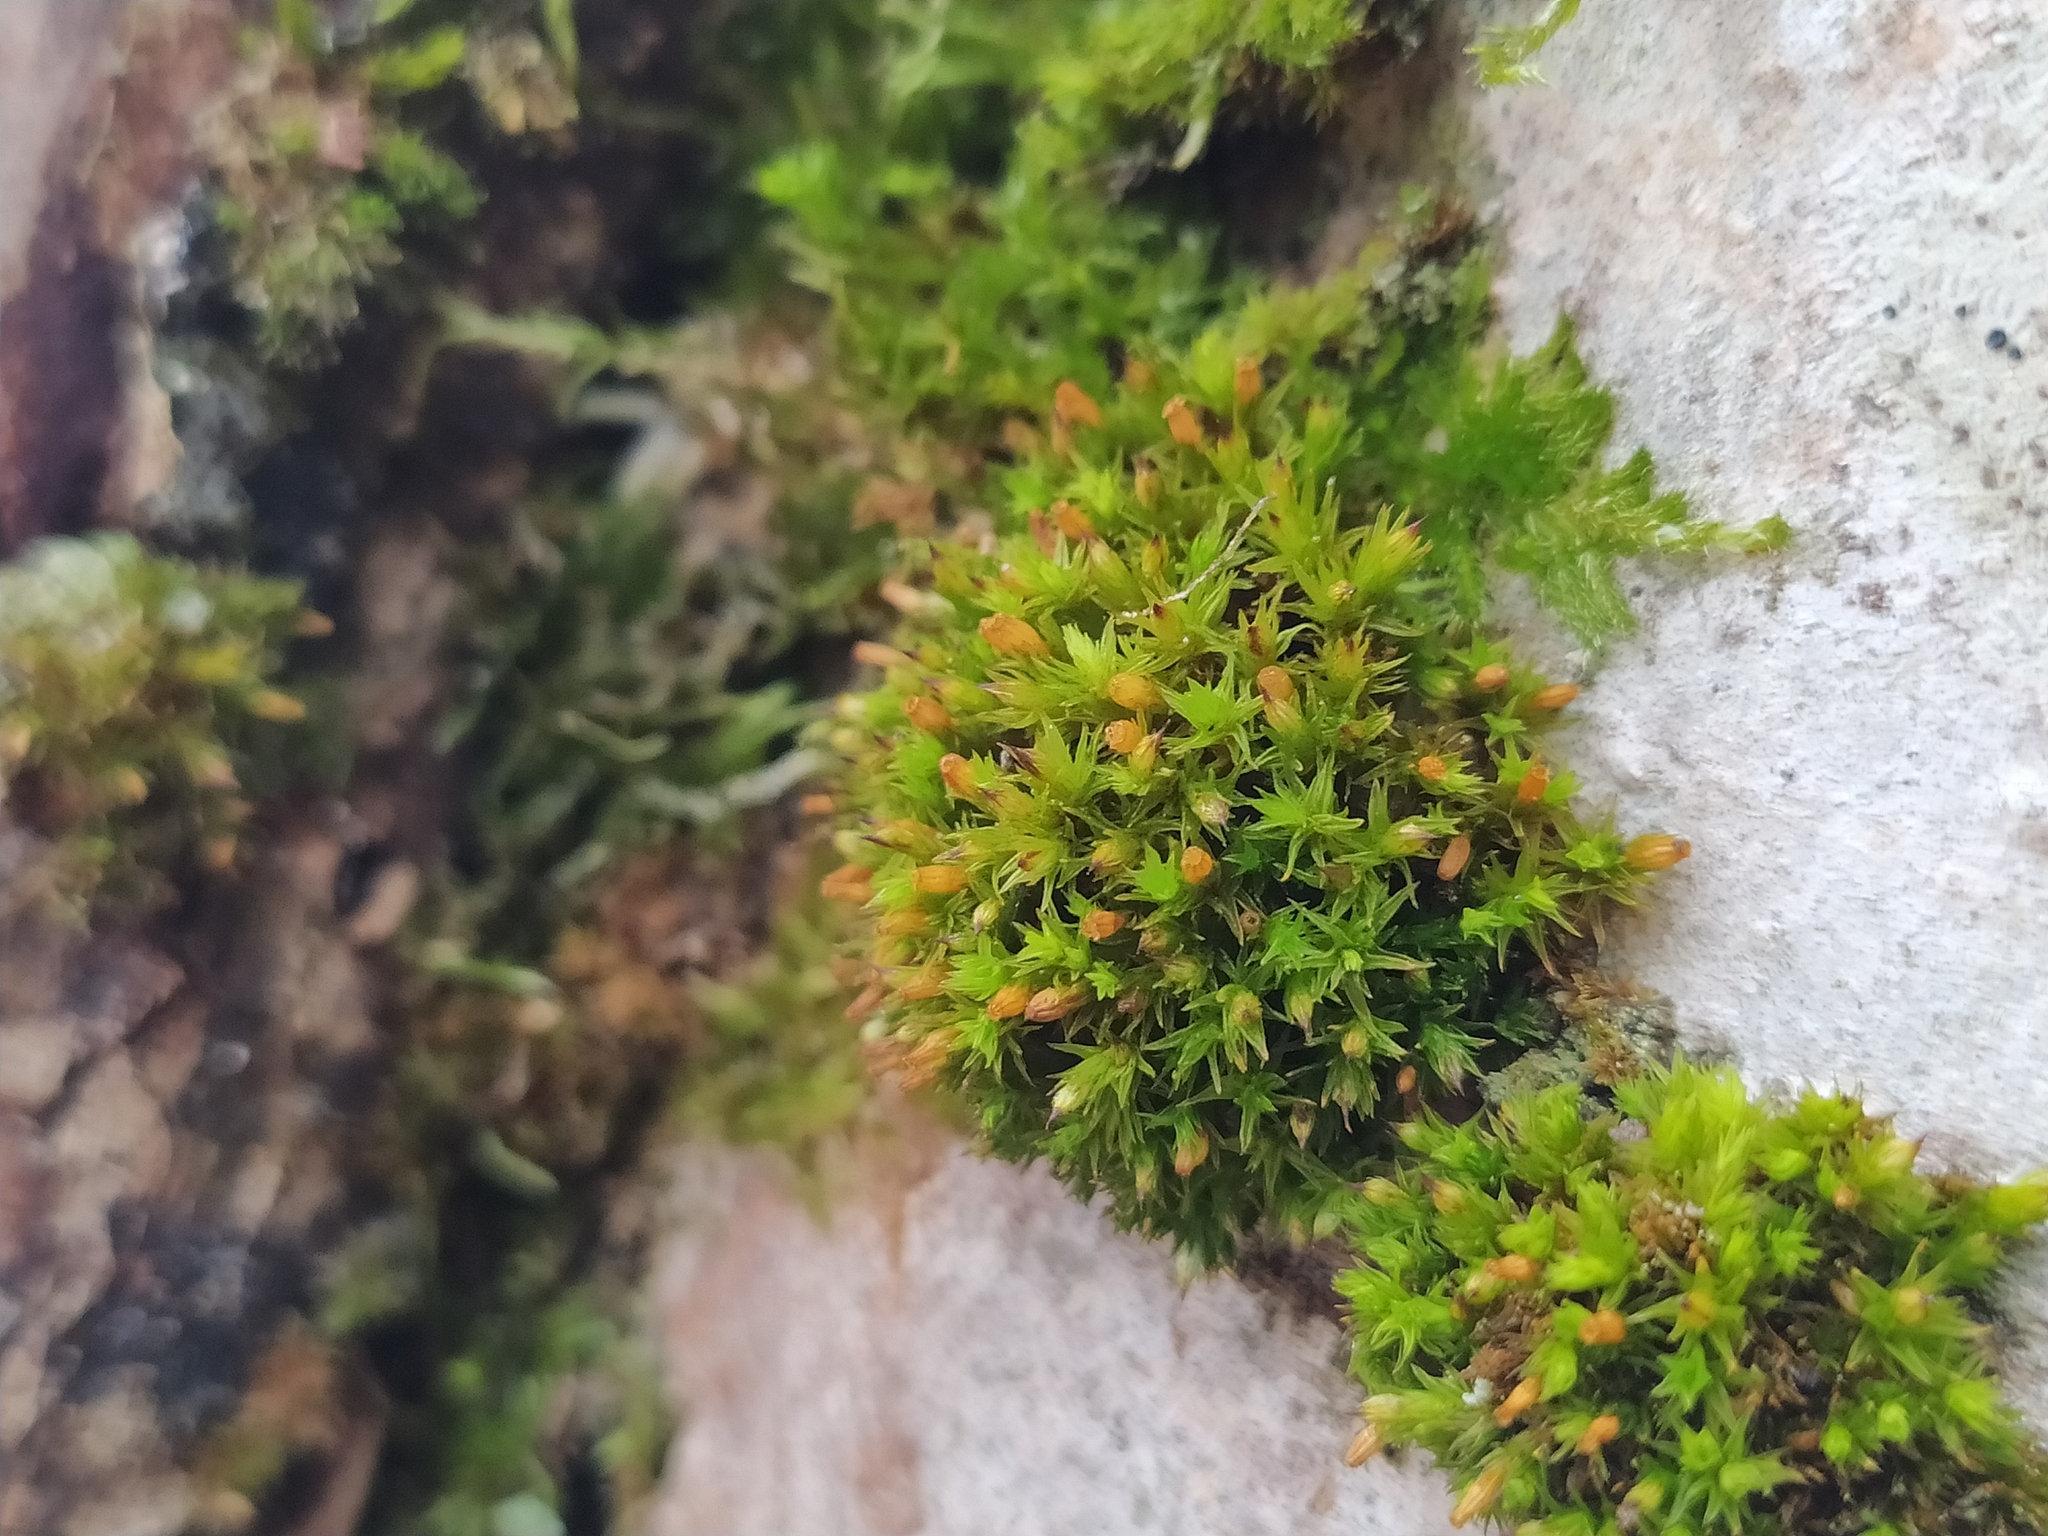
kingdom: Plantae
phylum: Bryophyta
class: Bryopsida
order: Orthotrichales
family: Orthotrichaceae
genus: Orthotrichum
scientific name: Orthotrichum stramineum
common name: Straw bristle-moss
